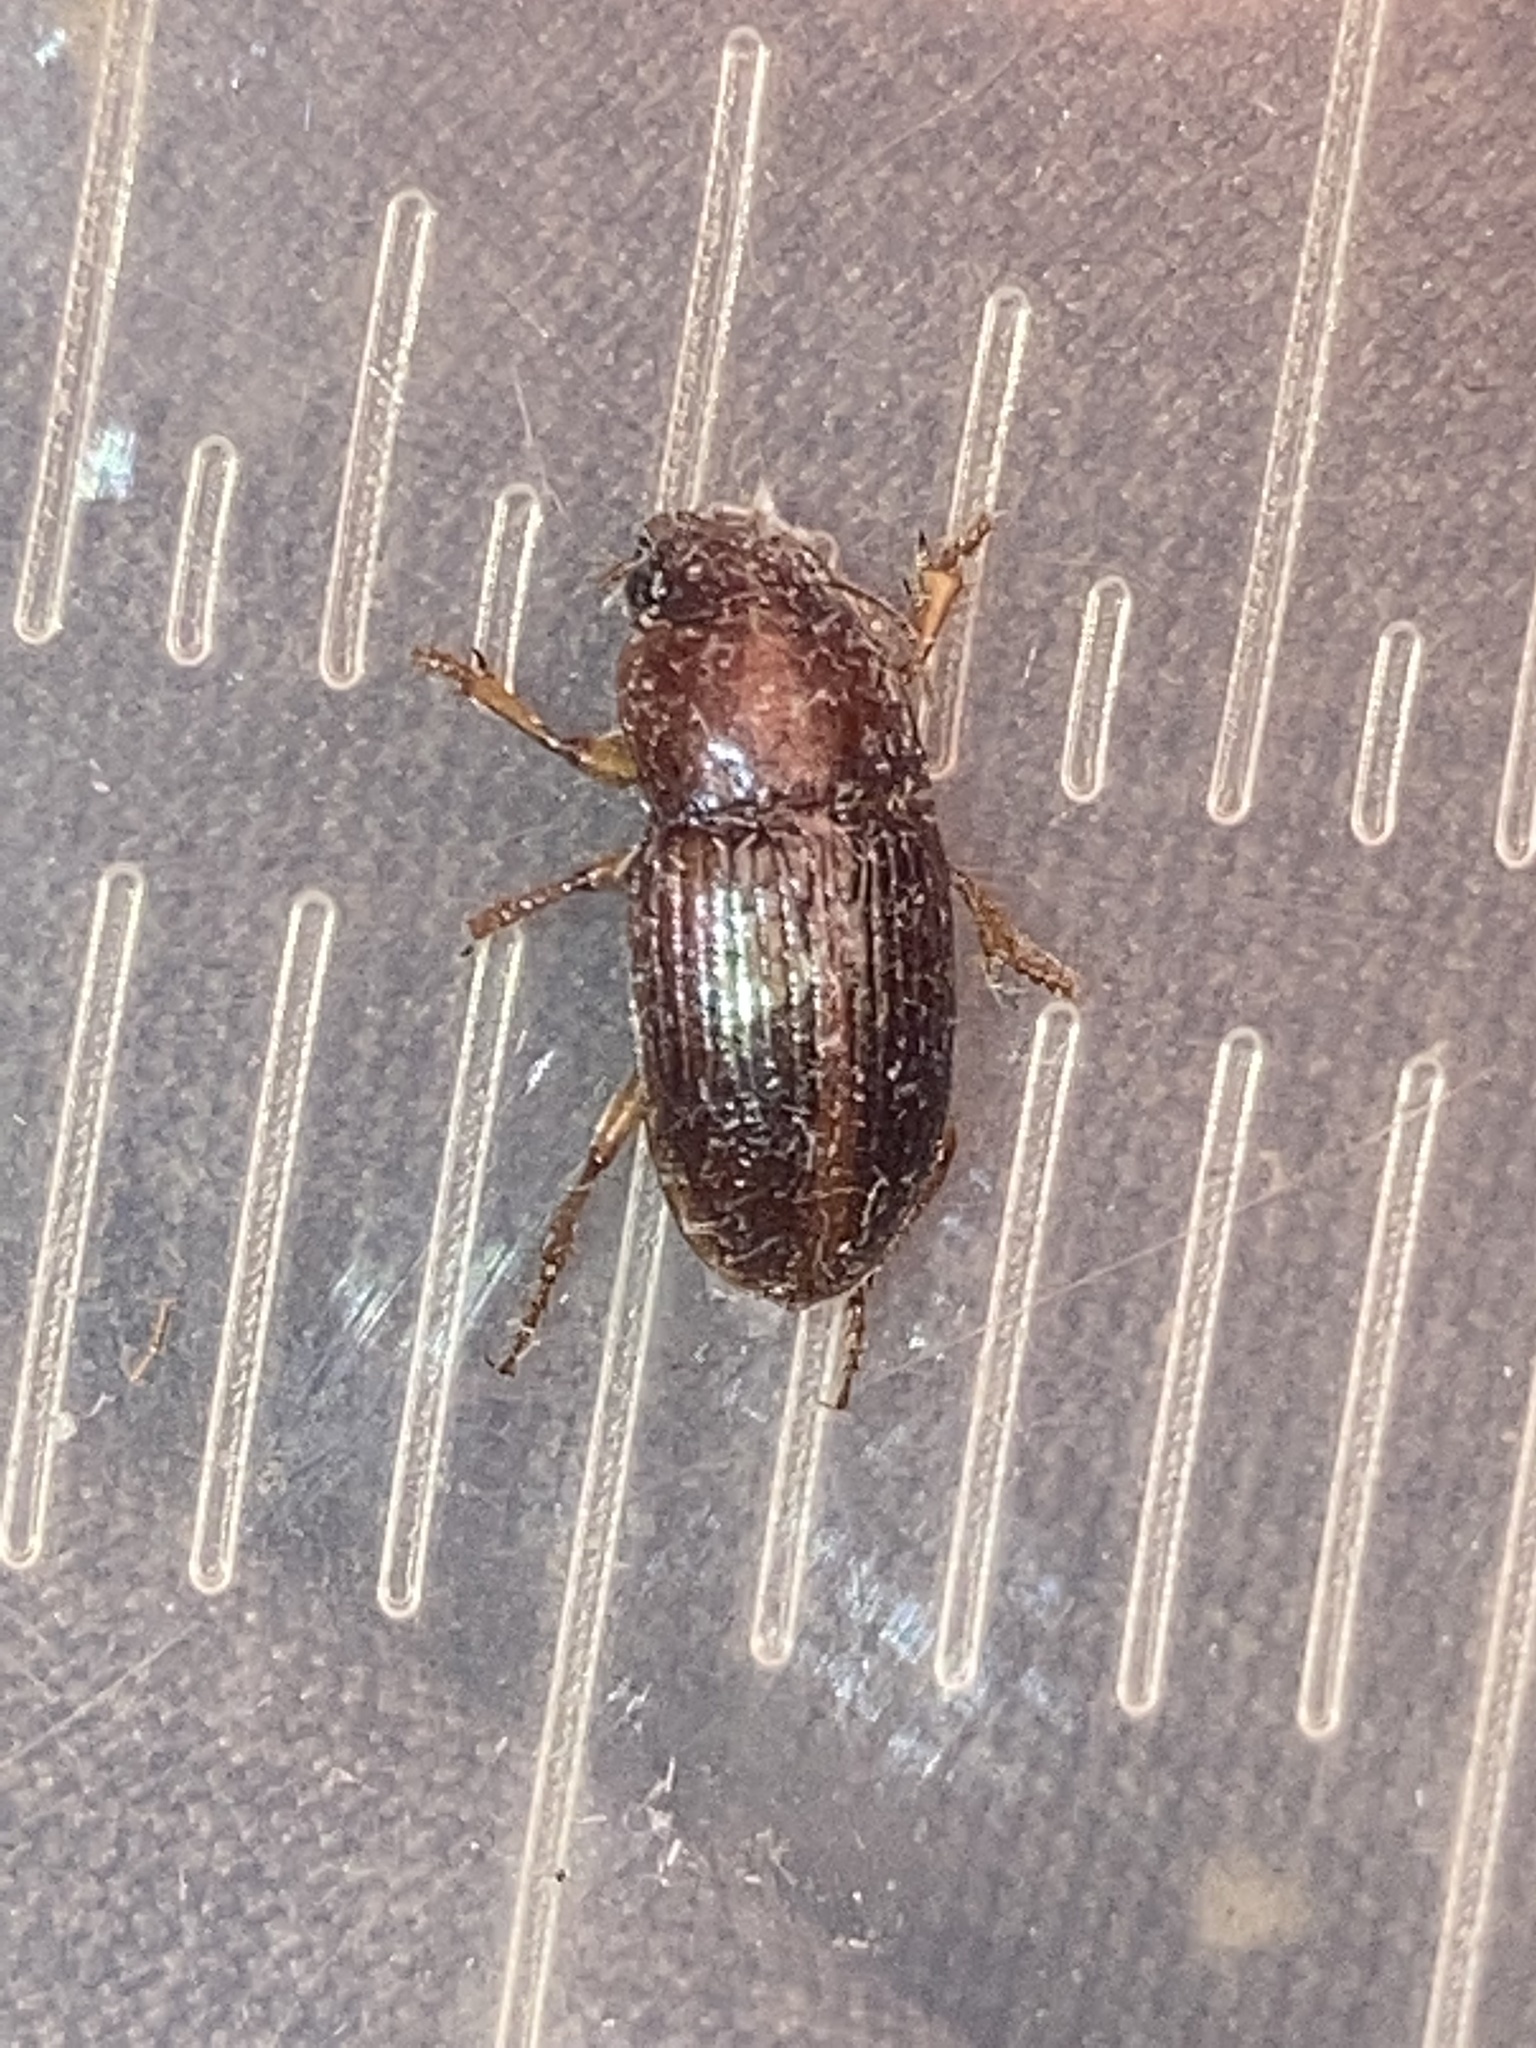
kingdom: Animalia
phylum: Arthropoda
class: Insecta
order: Coleoptera
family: Carabidae
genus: Cratacanthus
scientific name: Cratacanthus dubius
